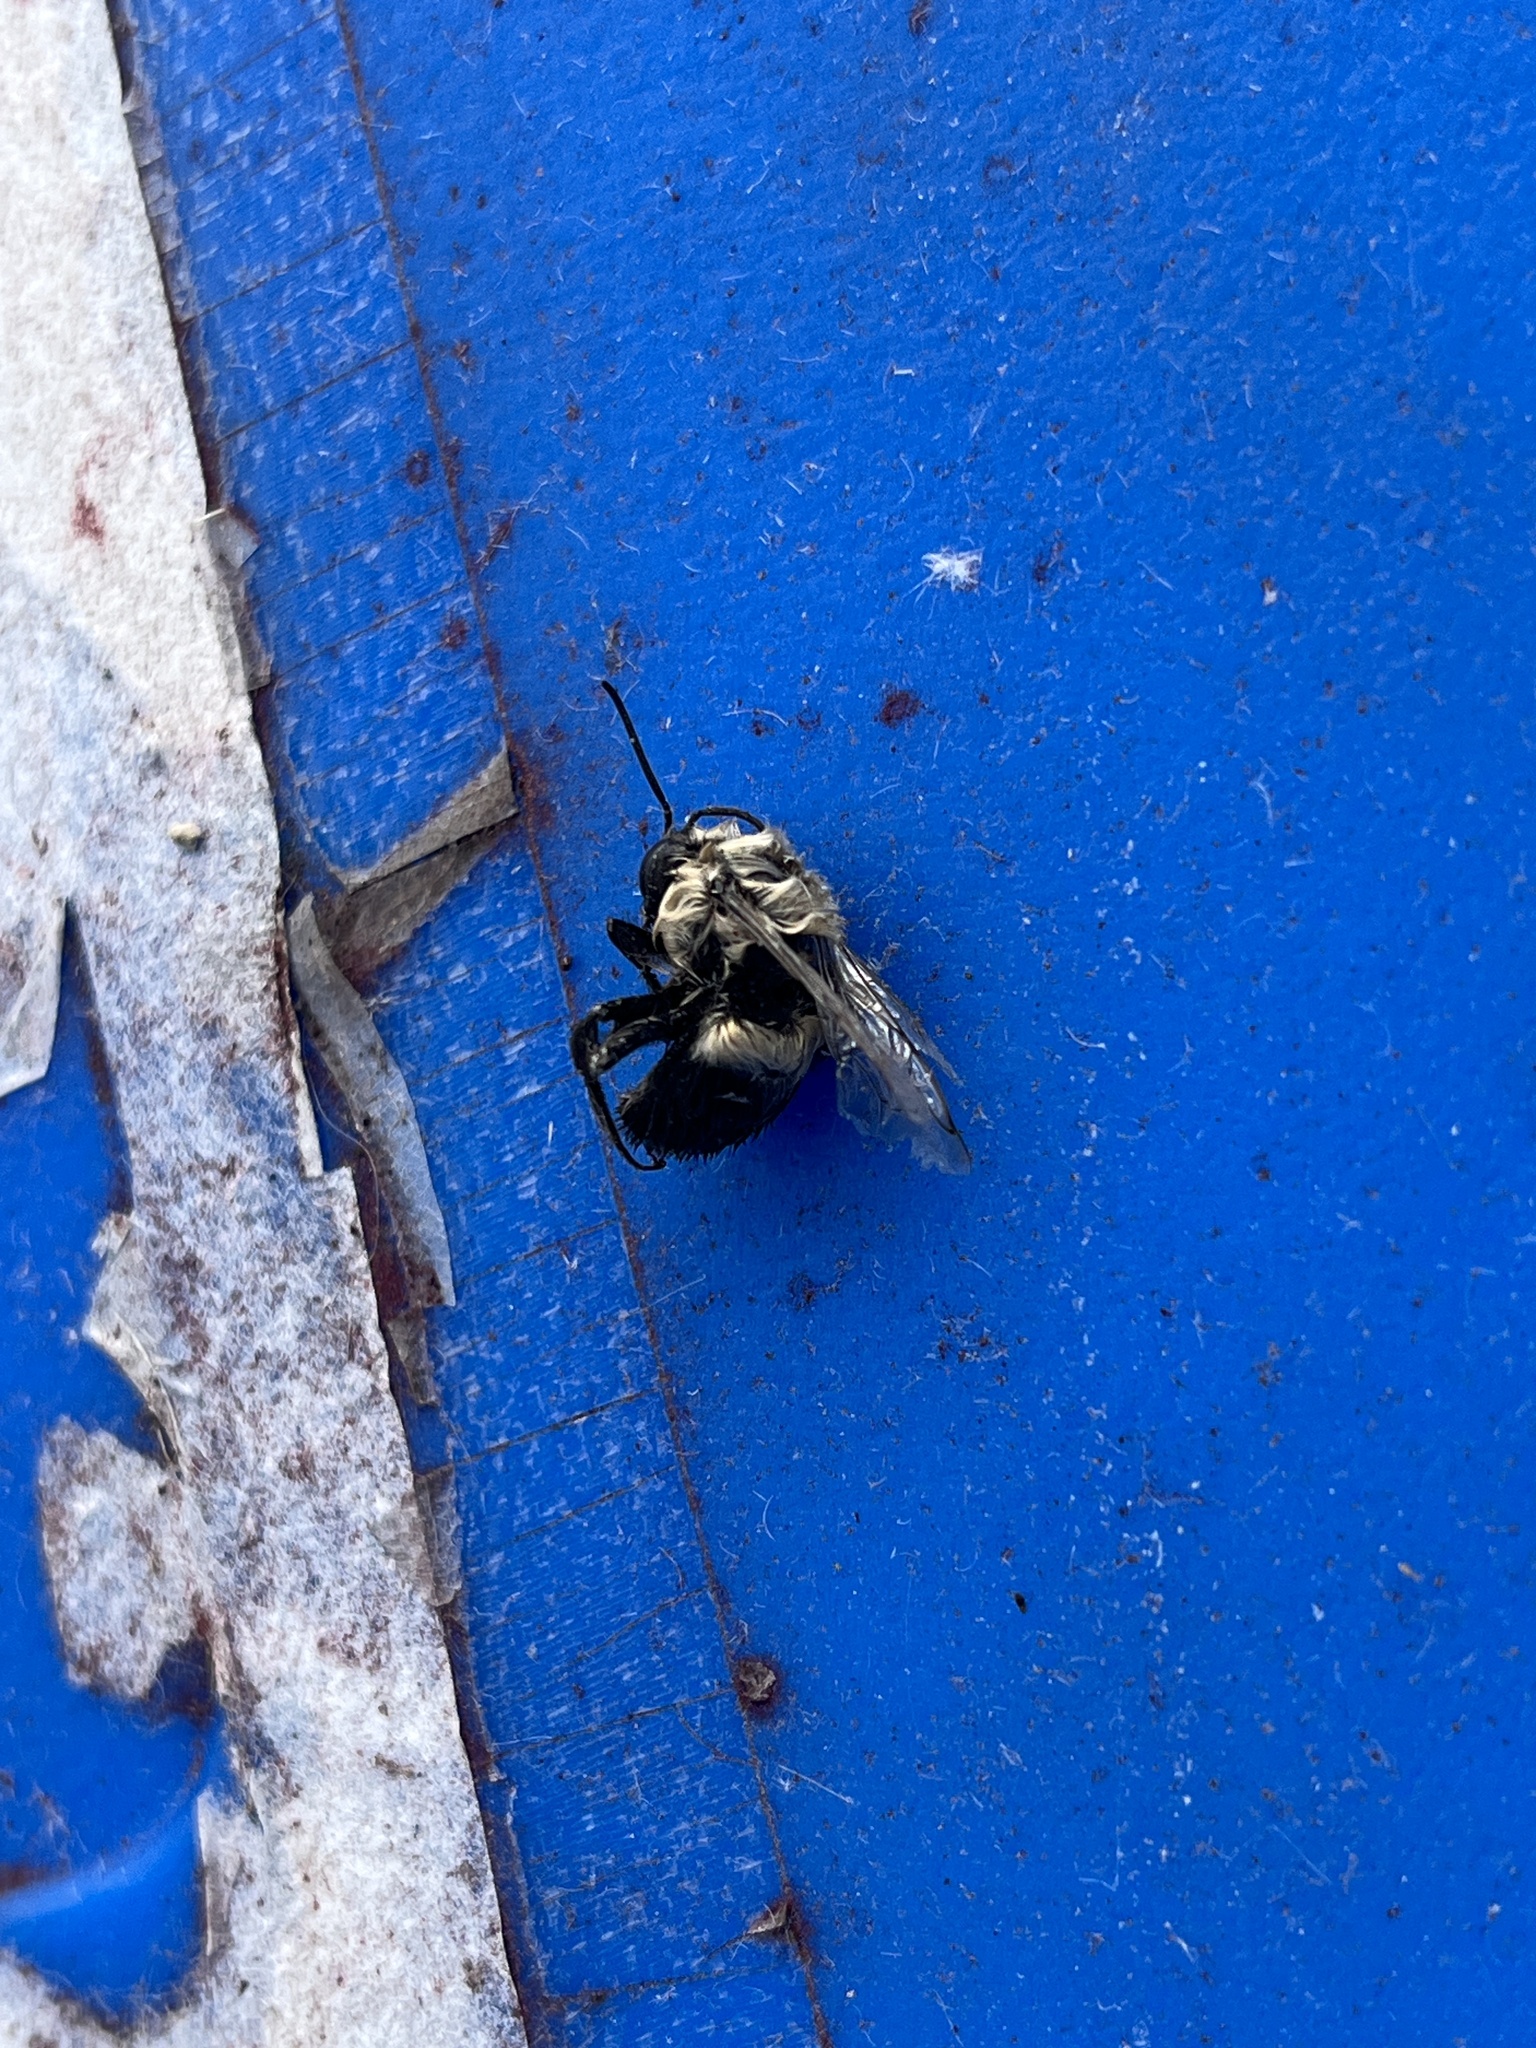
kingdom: Animalia
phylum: Arthropoda
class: Insecta
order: Hymenoptera
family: Apidae
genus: Bombus
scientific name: Bombus impatiens
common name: Common eastern bumble bee
